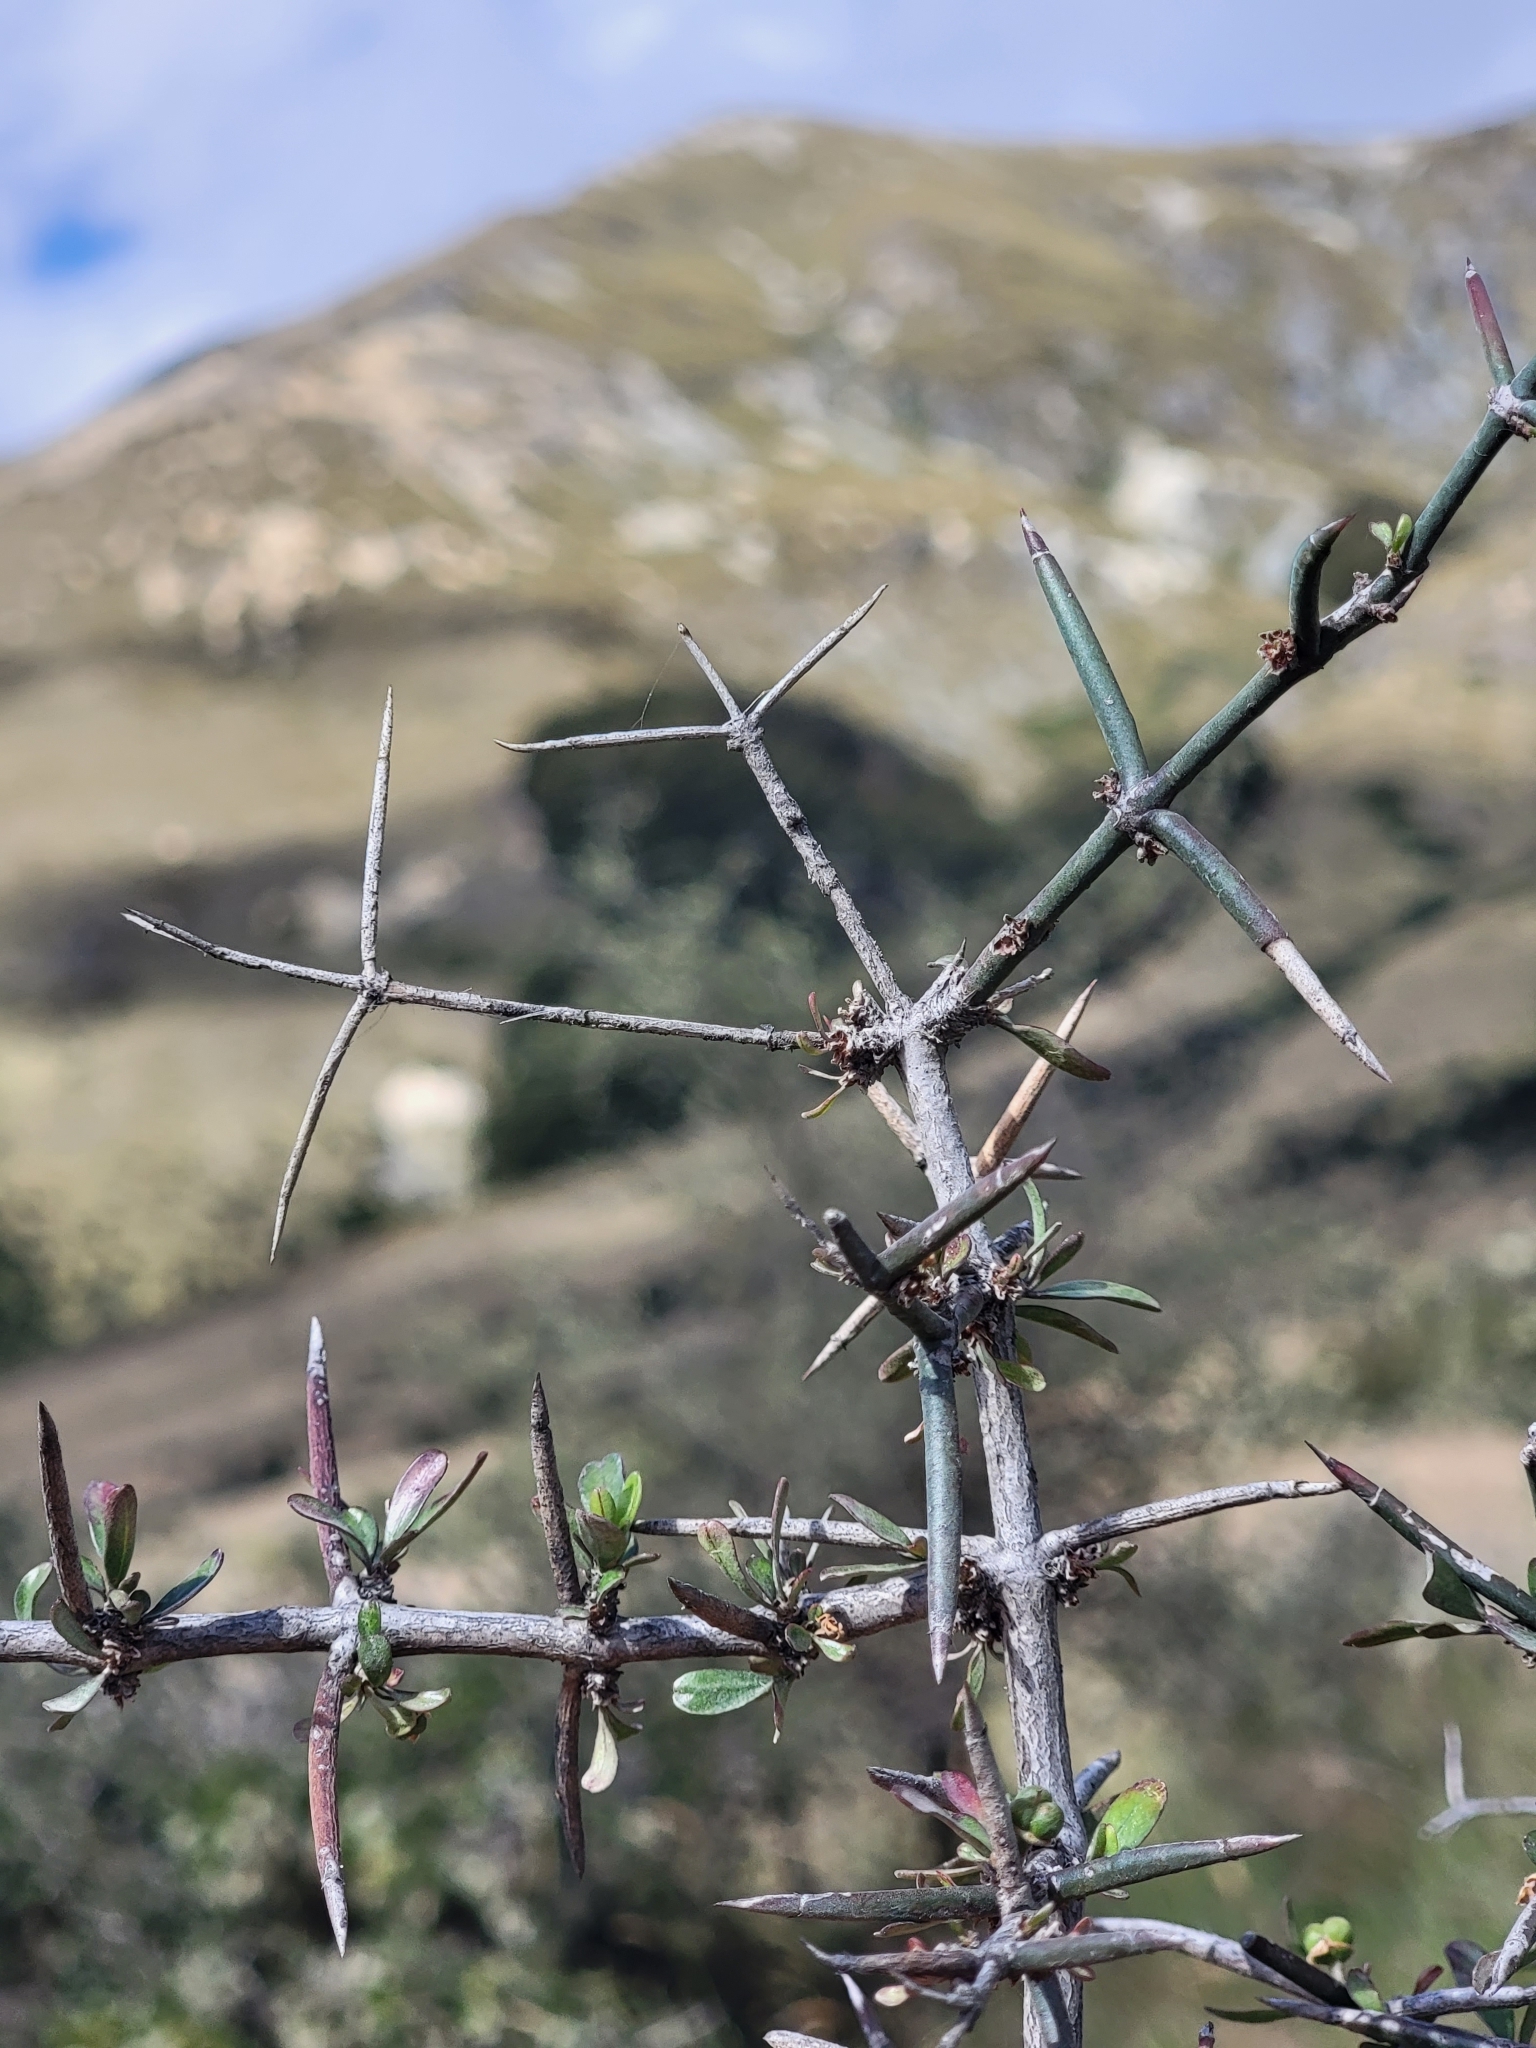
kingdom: Plantae
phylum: Tracheophyta
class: Magnoliopsida
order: Rosales
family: Rhamnaceae
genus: Discaria
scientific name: Discaria toumatou
